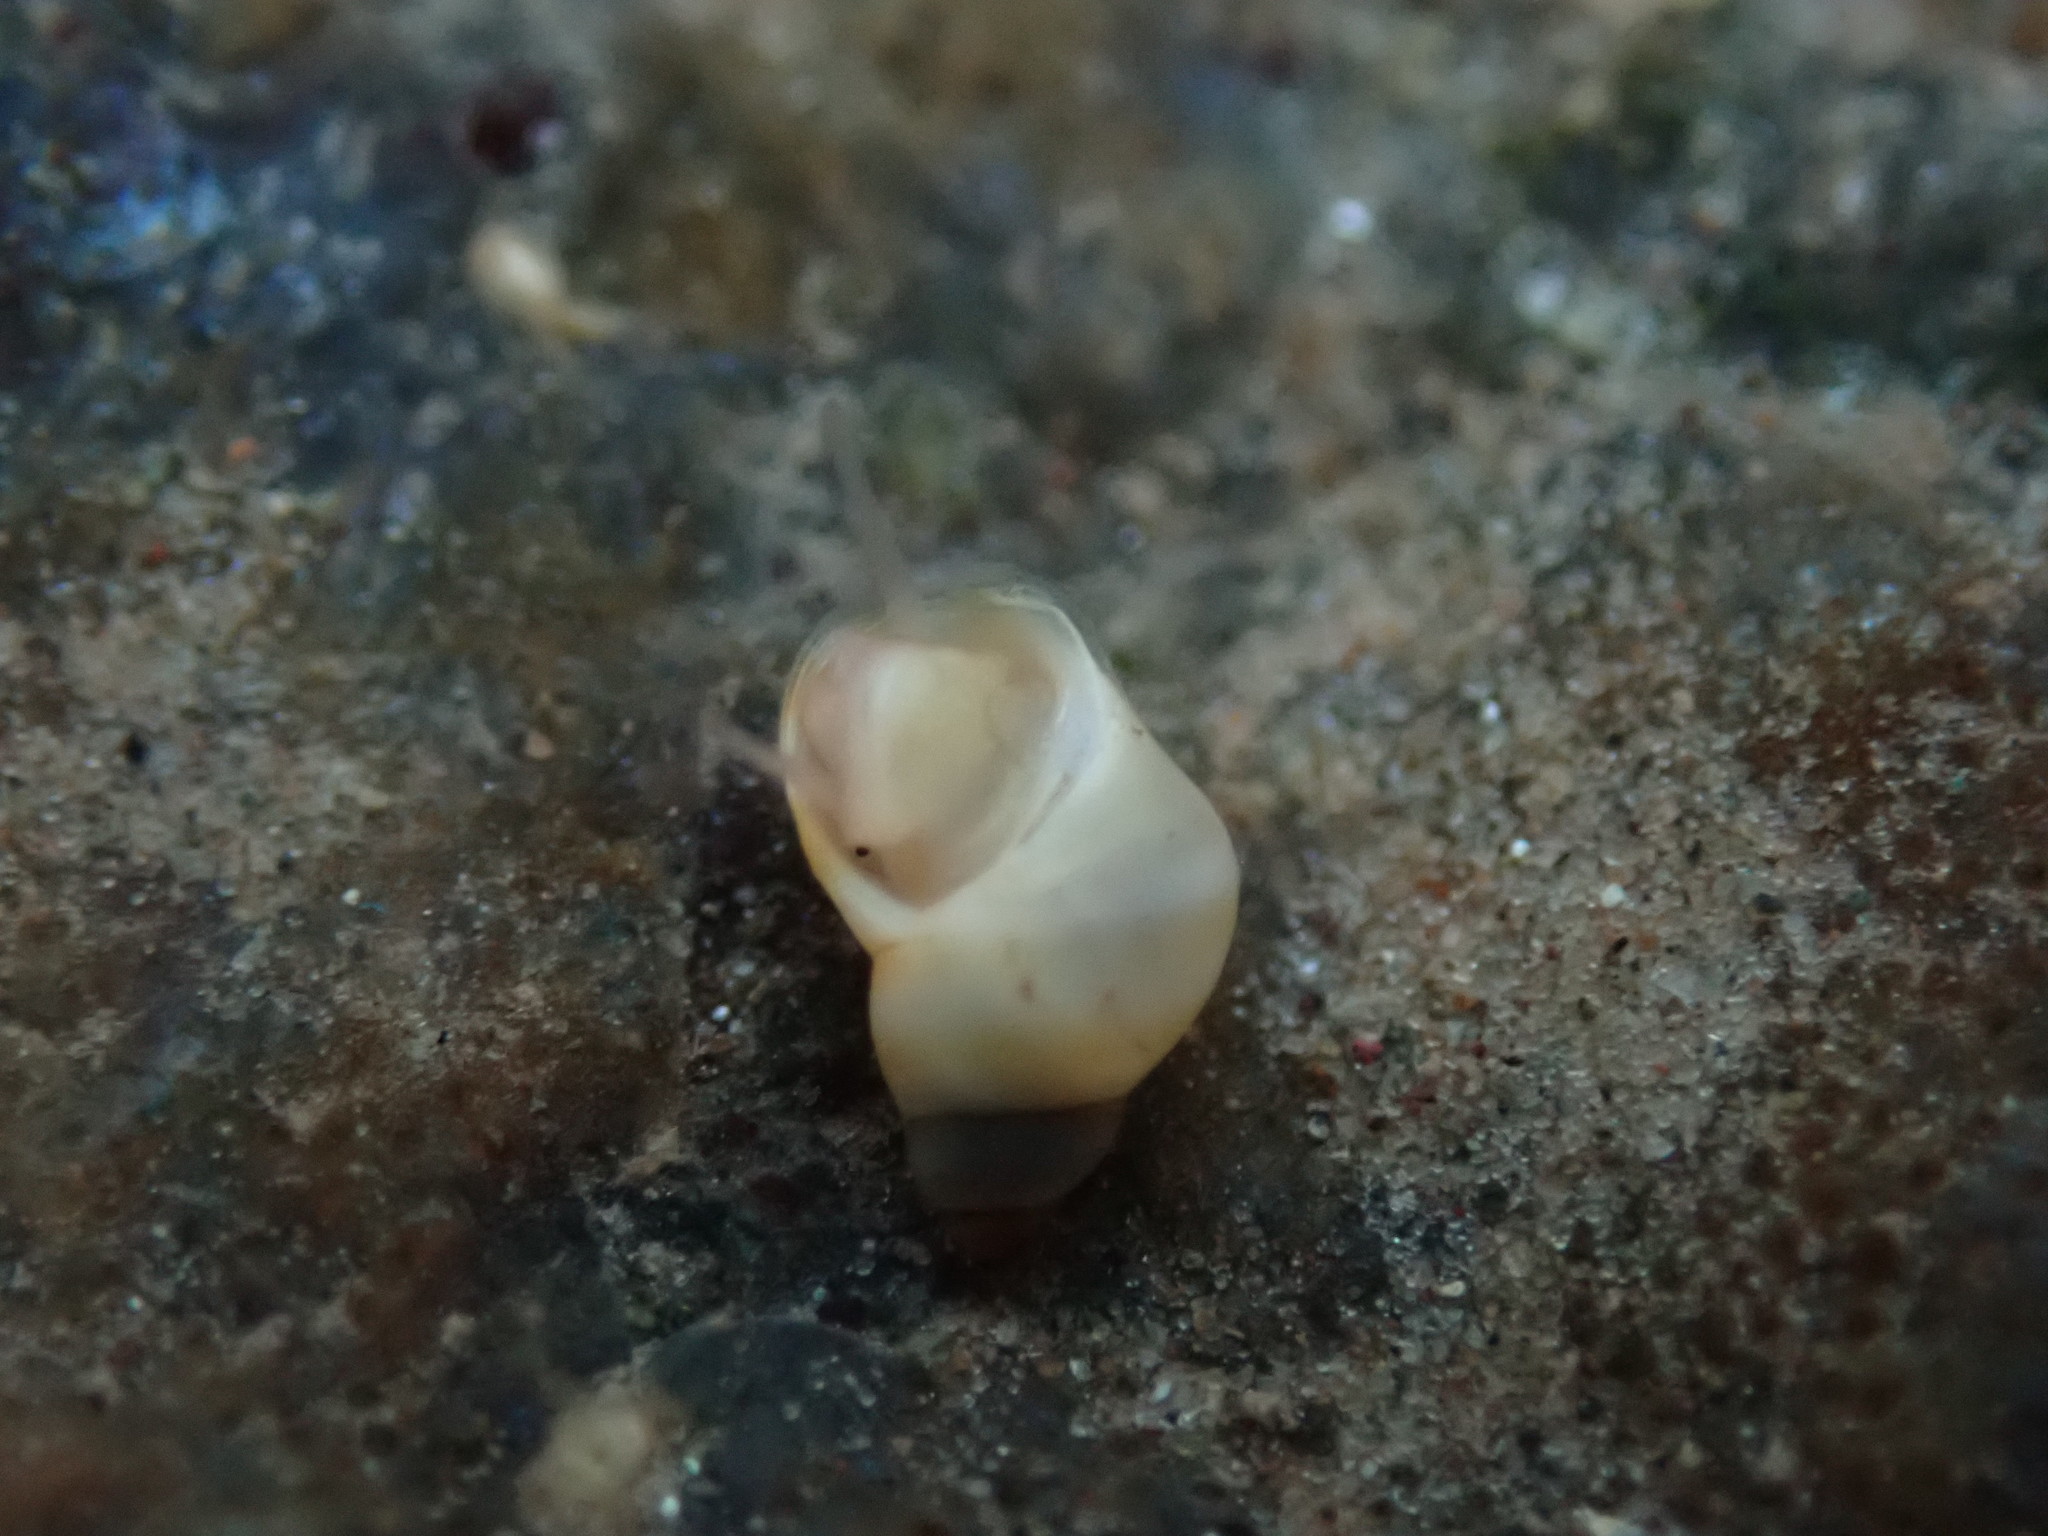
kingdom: Animalia
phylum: Mollusca
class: Gastropoda
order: Littorinimorpha
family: Littorinidae
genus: Lacuna
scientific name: Lacuna vincta
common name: Banded chink shell
